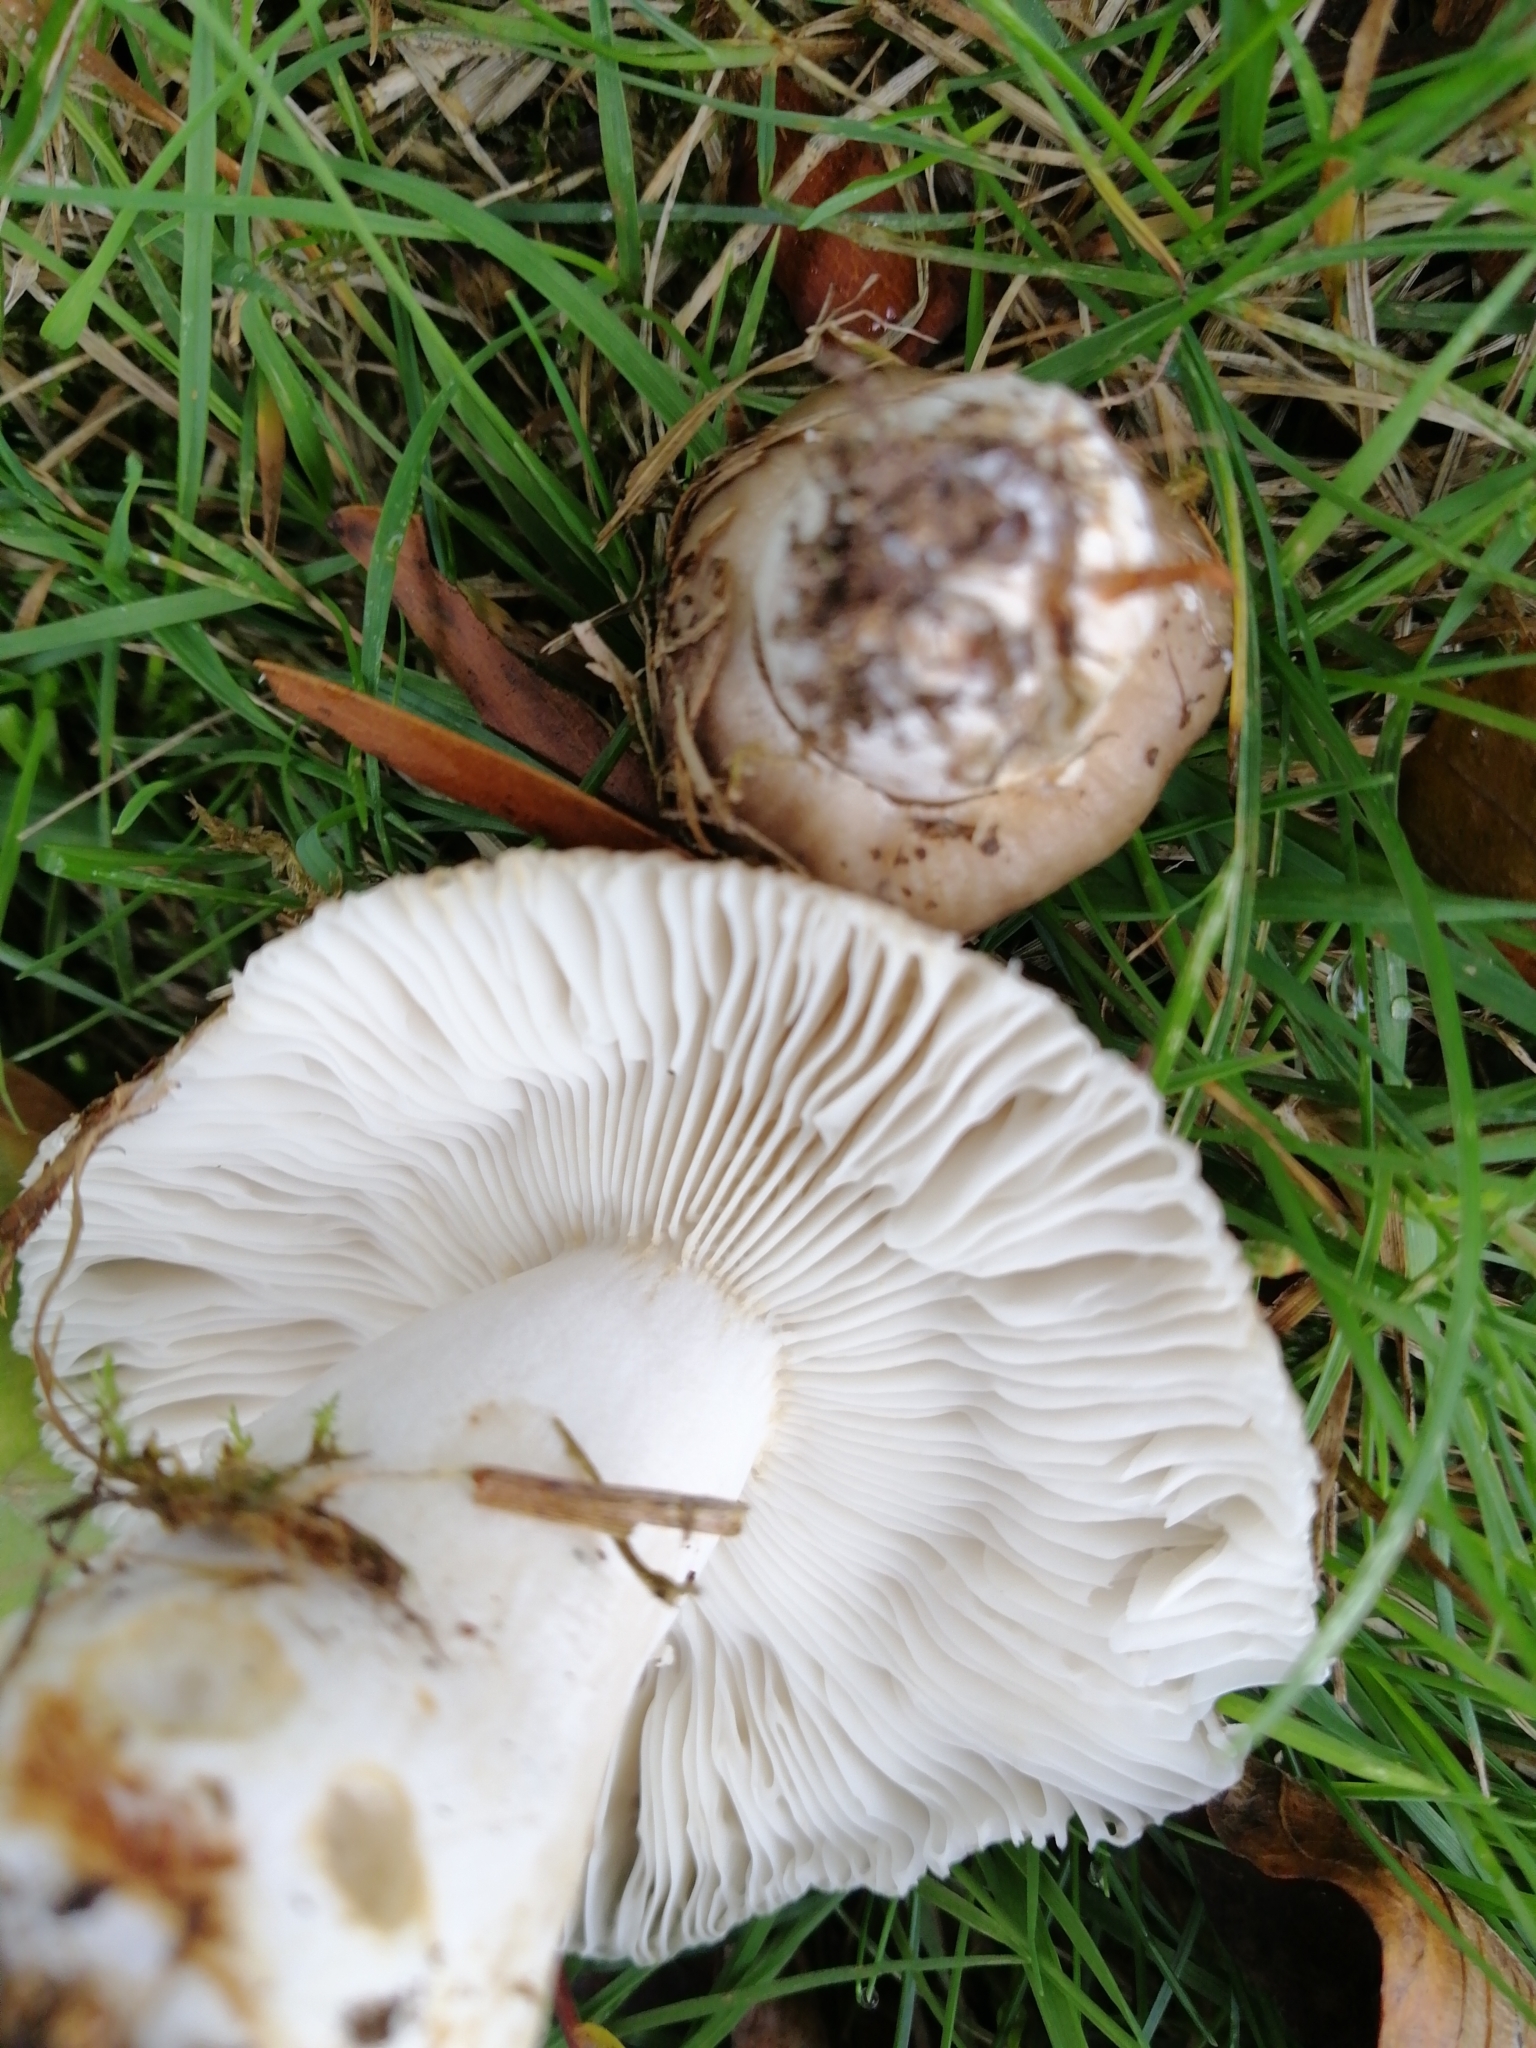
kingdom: Fungi
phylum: Basidiomycota
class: Agaricomycetes
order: Russulales
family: Russulaceae
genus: Russula
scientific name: Russula amoenolens
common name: Camembert brittlegill
